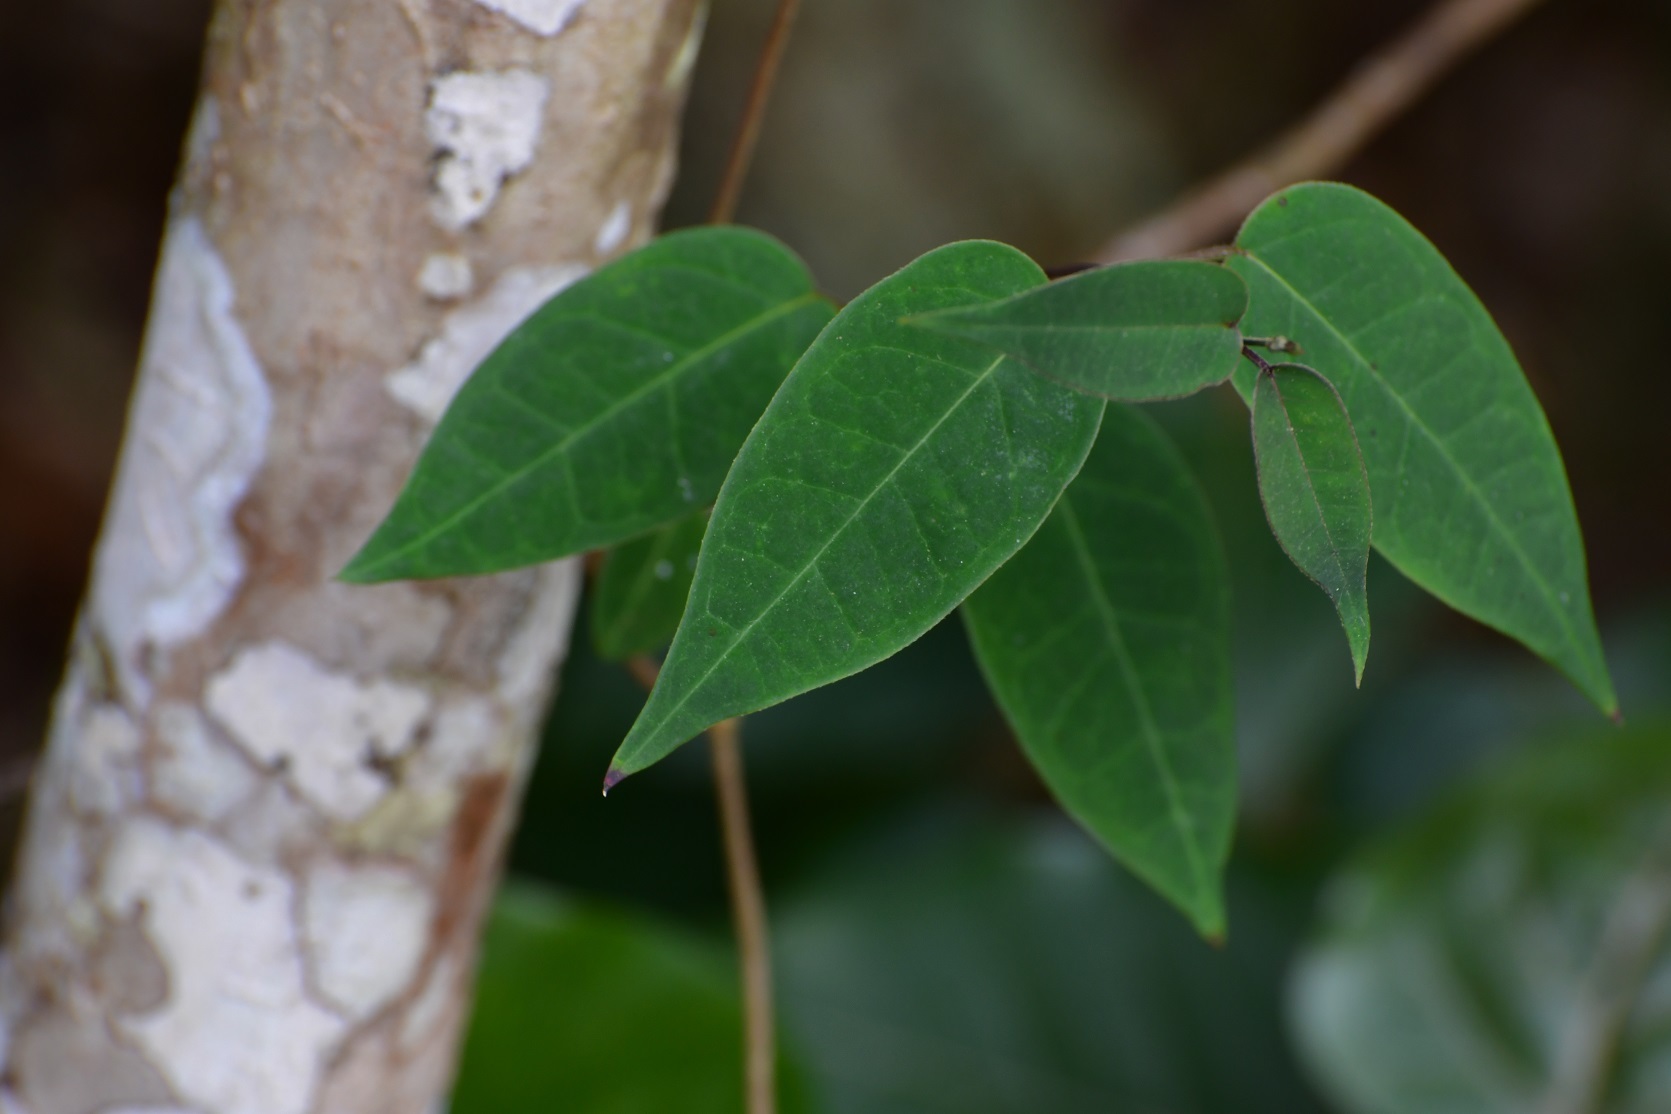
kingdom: Plantae
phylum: Tracheophyta
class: Magnoliopsida
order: Gentianales
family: Apocynaceae
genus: Ruehssia
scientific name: Ruehssia sumiderensis
